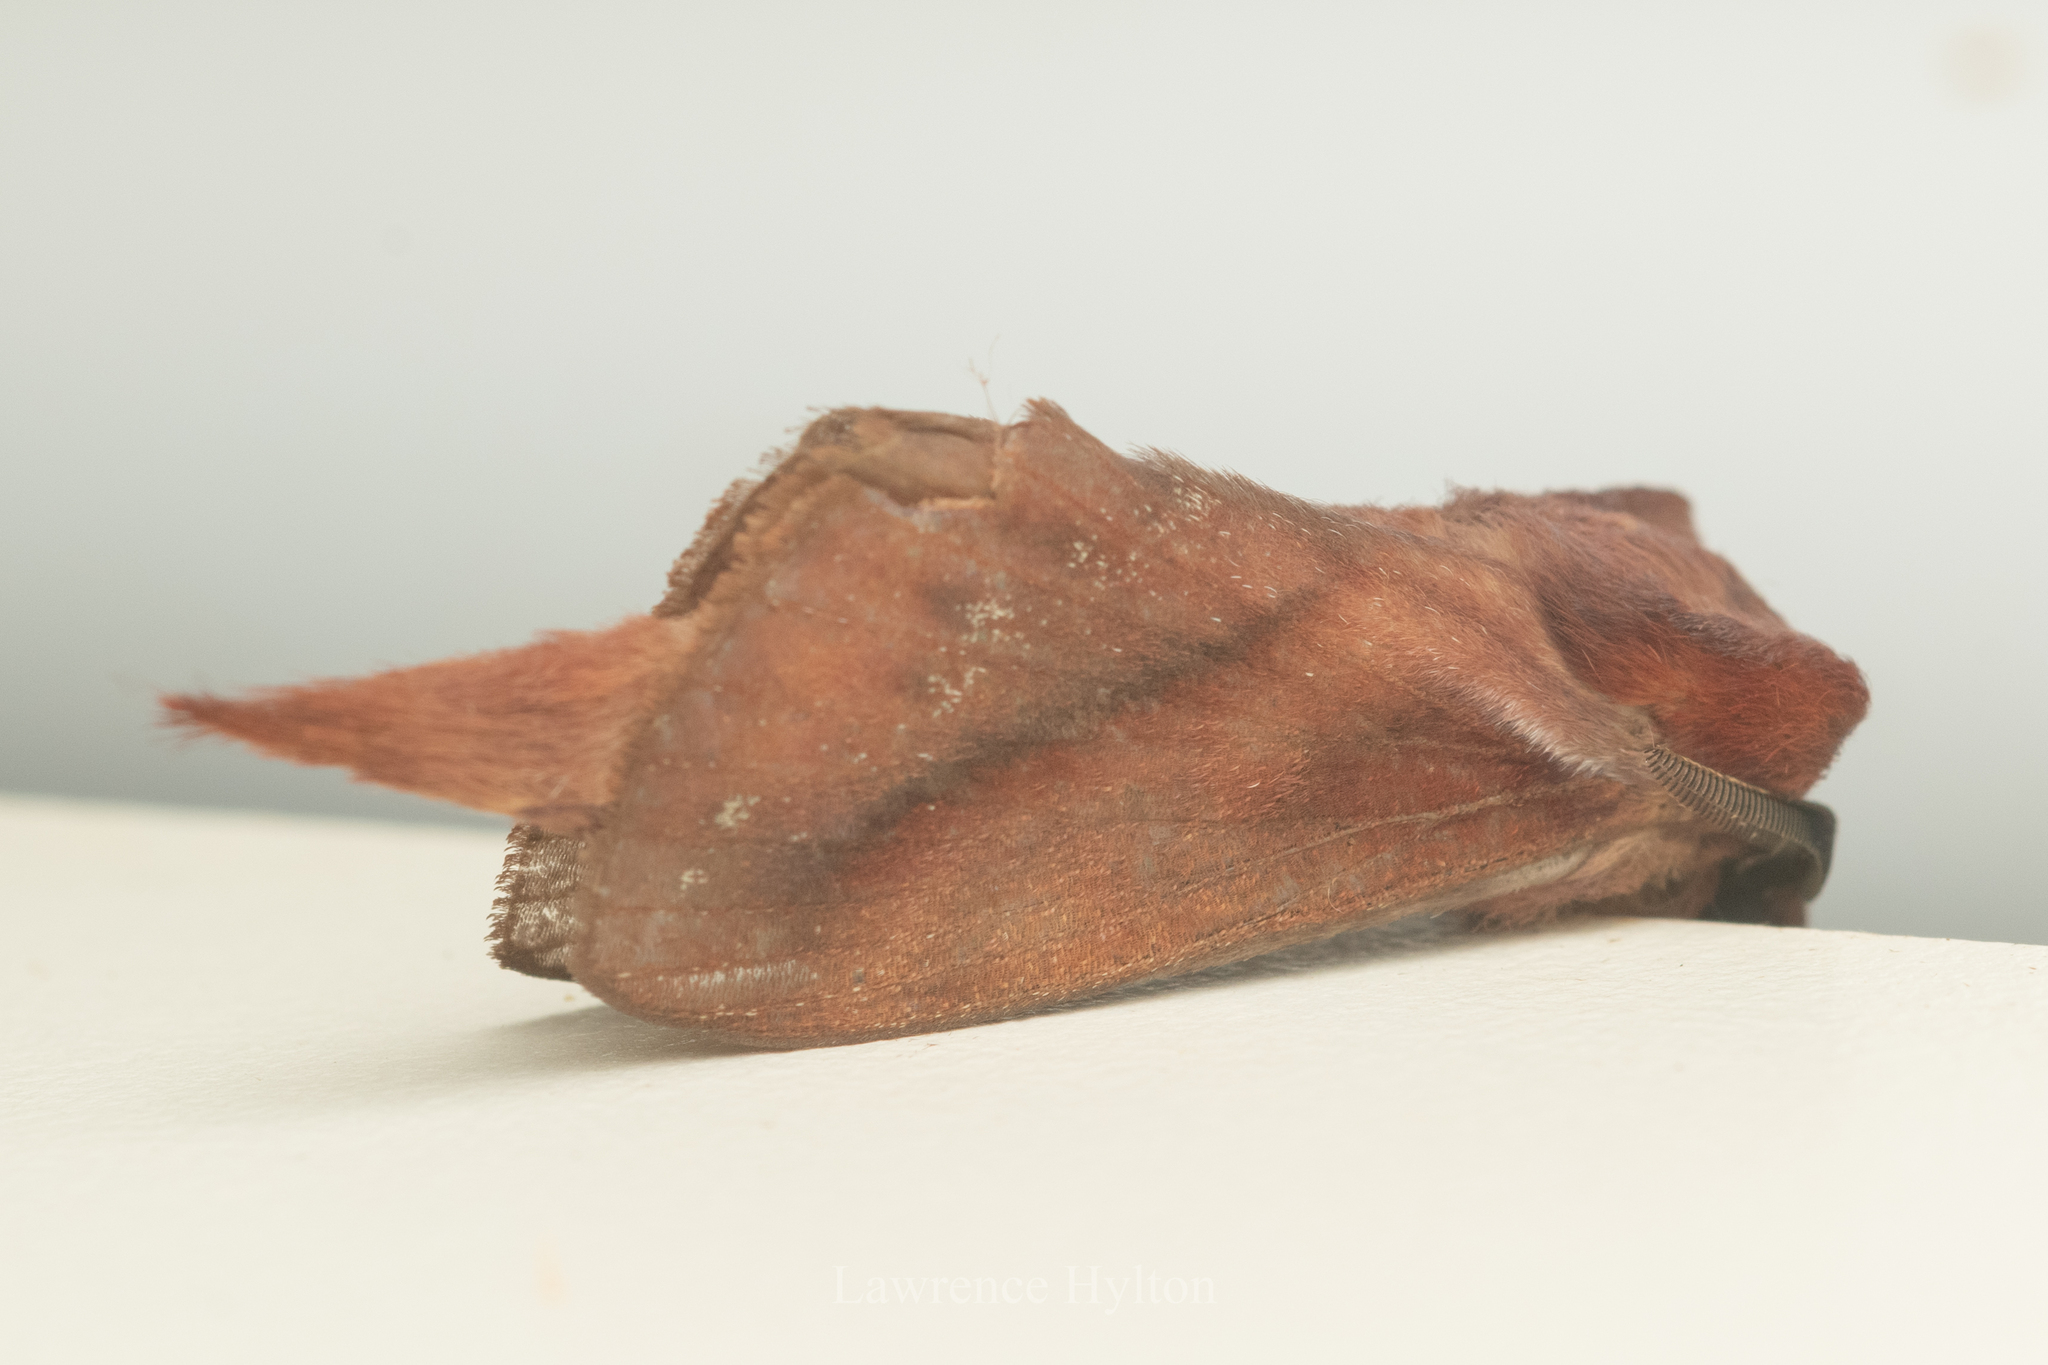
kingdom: Animalia
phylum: Arthropoda
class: Insecta
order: Lepidoptera
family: Lasiocampidae
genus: Kunugia
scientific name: Kunugia divaricata
